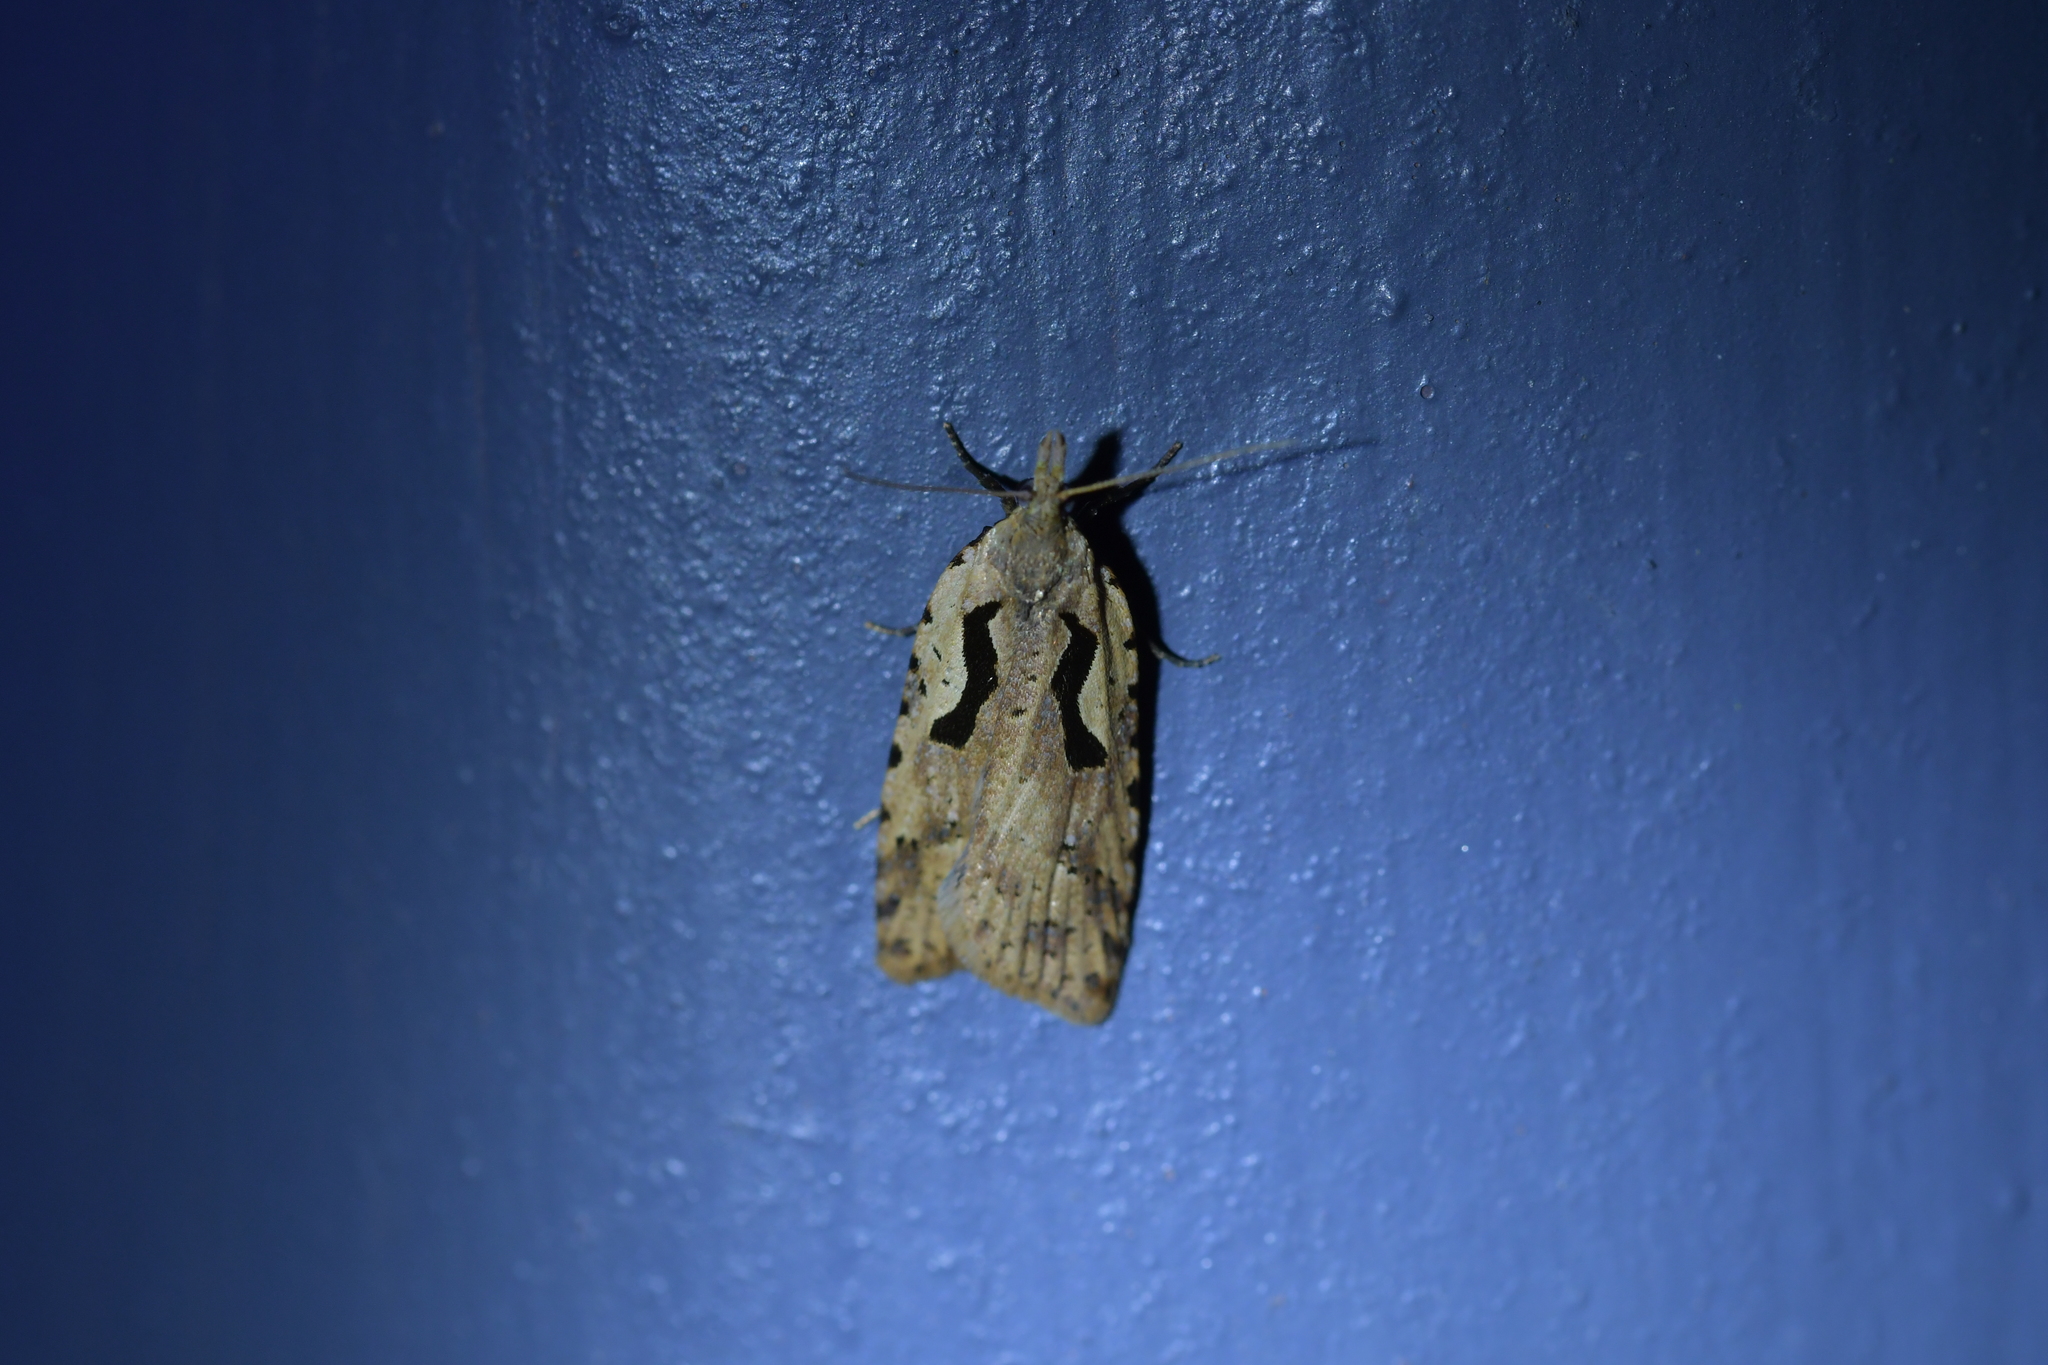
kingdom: Animalia
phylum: Arthropoda
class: Insecta
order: Lepidoptera
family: Tortricidae
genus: Cnephasia
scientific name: Cnephasia jactatana
